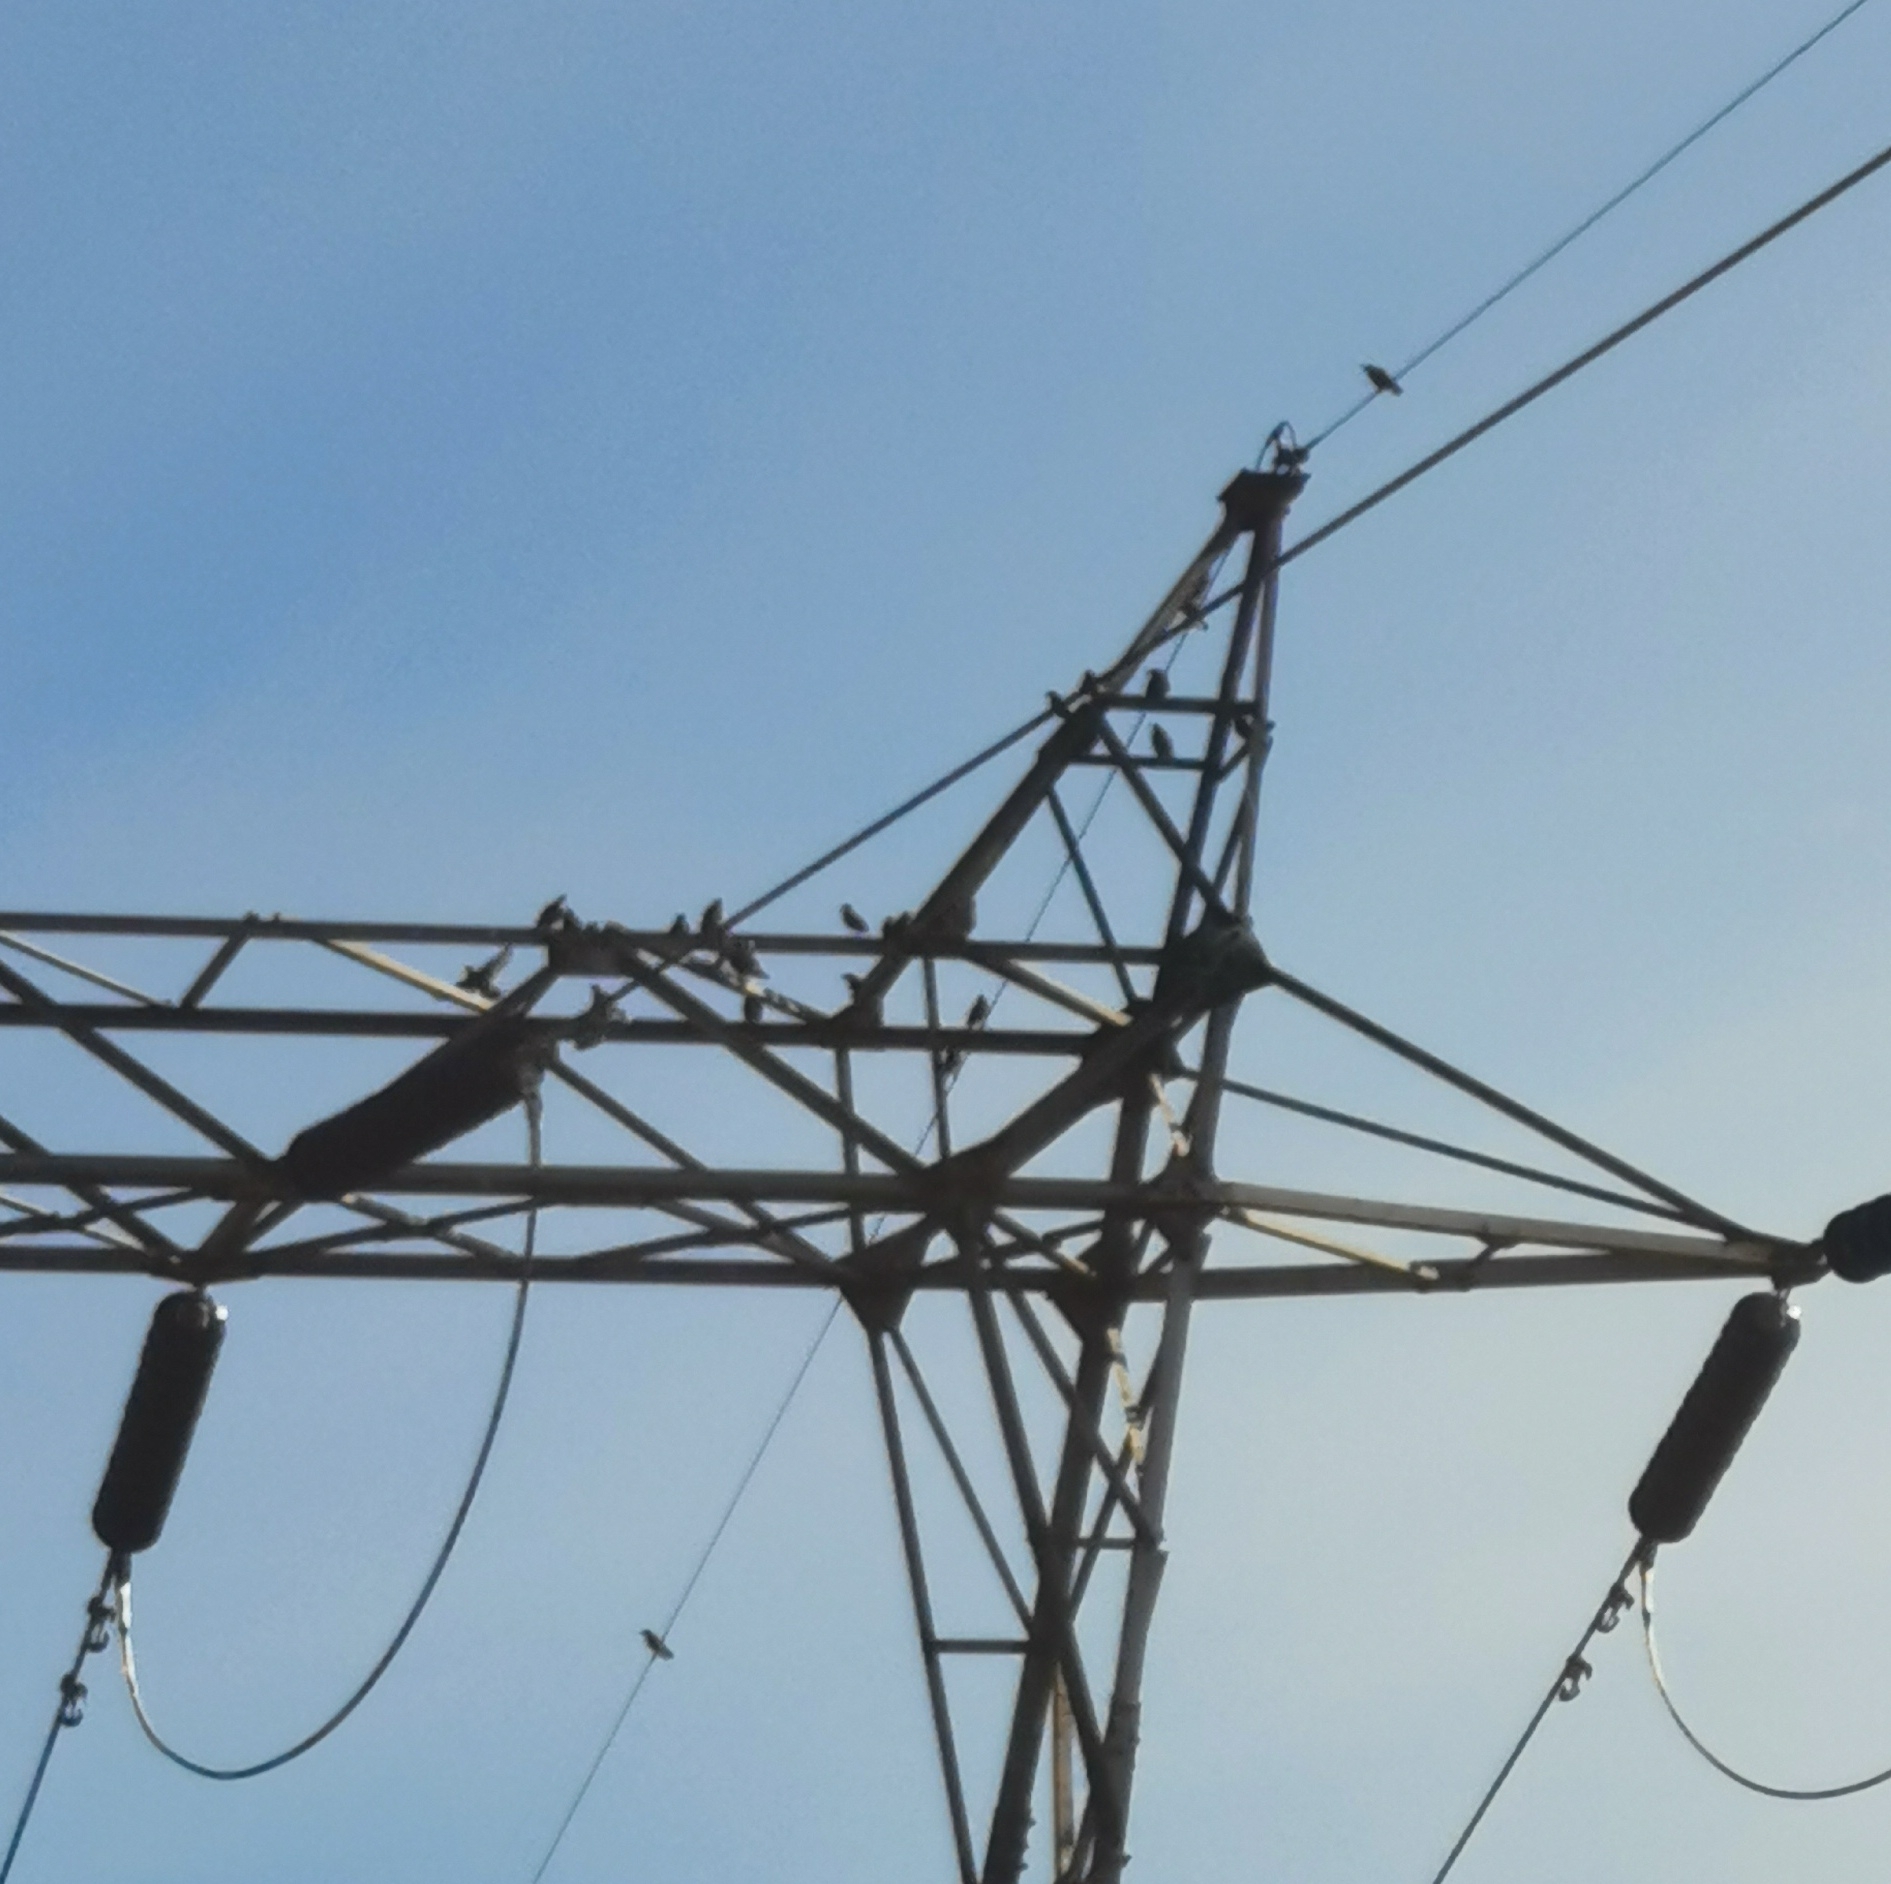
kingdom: Animalia
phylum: Chordata
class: Aves
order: Passeriformes
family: Sturnidae
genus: Sturnus
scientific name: Sturnus vulgaris
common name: Common starling
